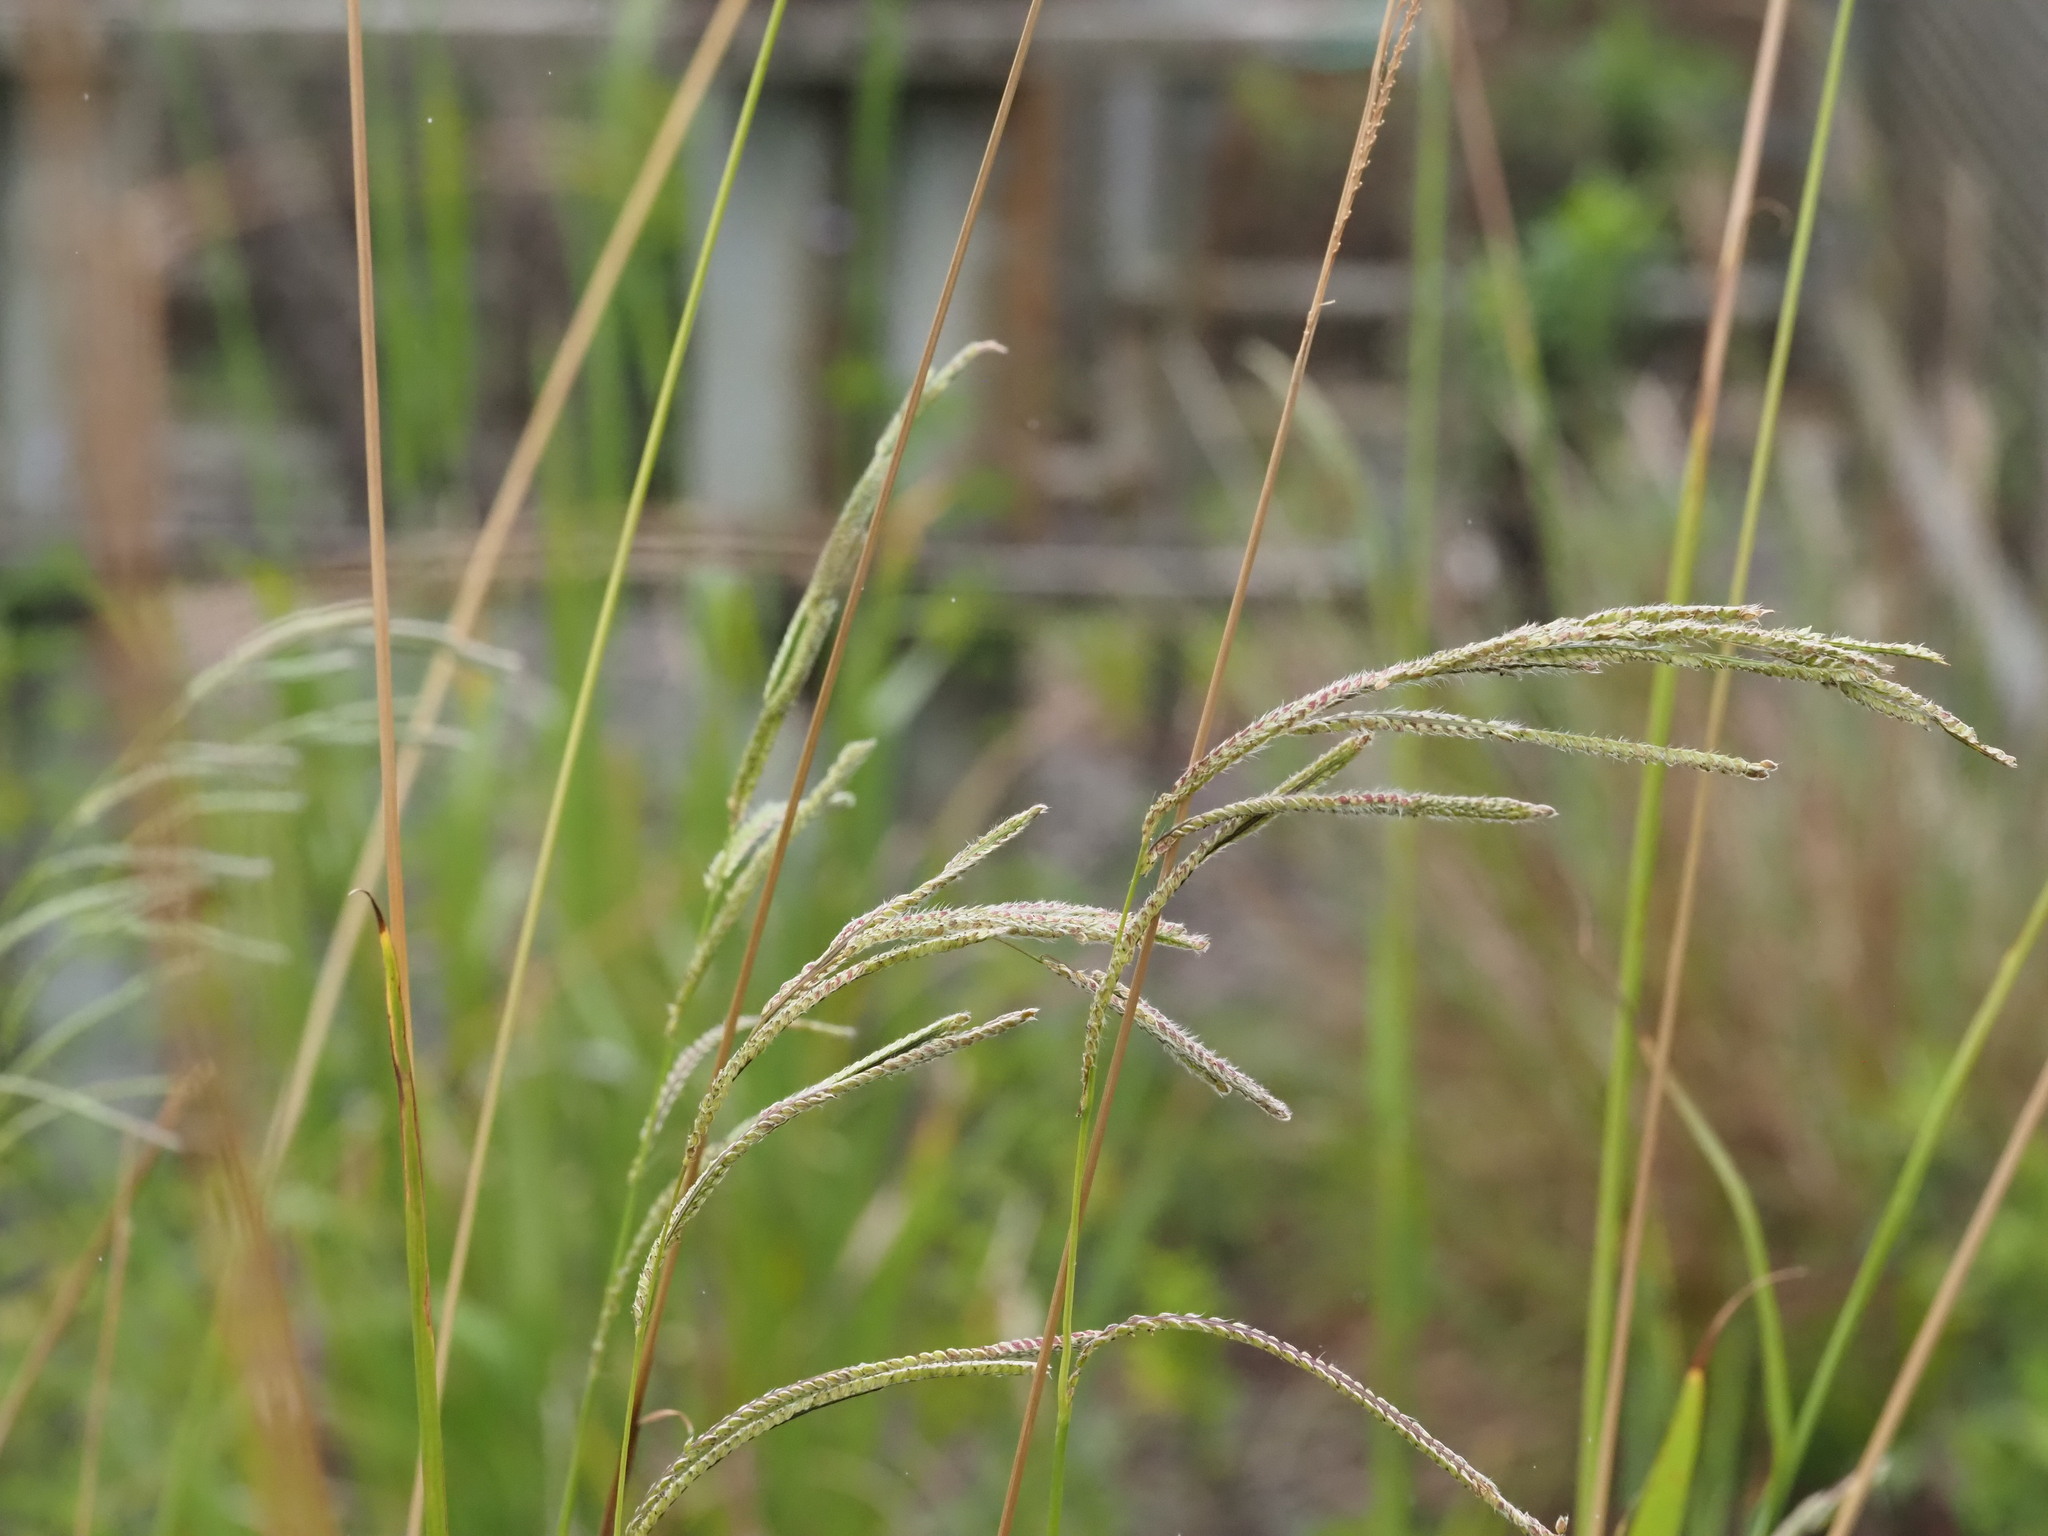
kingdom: Plantae
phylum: Tracheophyta
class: Liliopsida
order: Poales
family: Poaceae
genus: Paspalum
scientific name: Paspalum urvillei
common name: Vasey's grass
